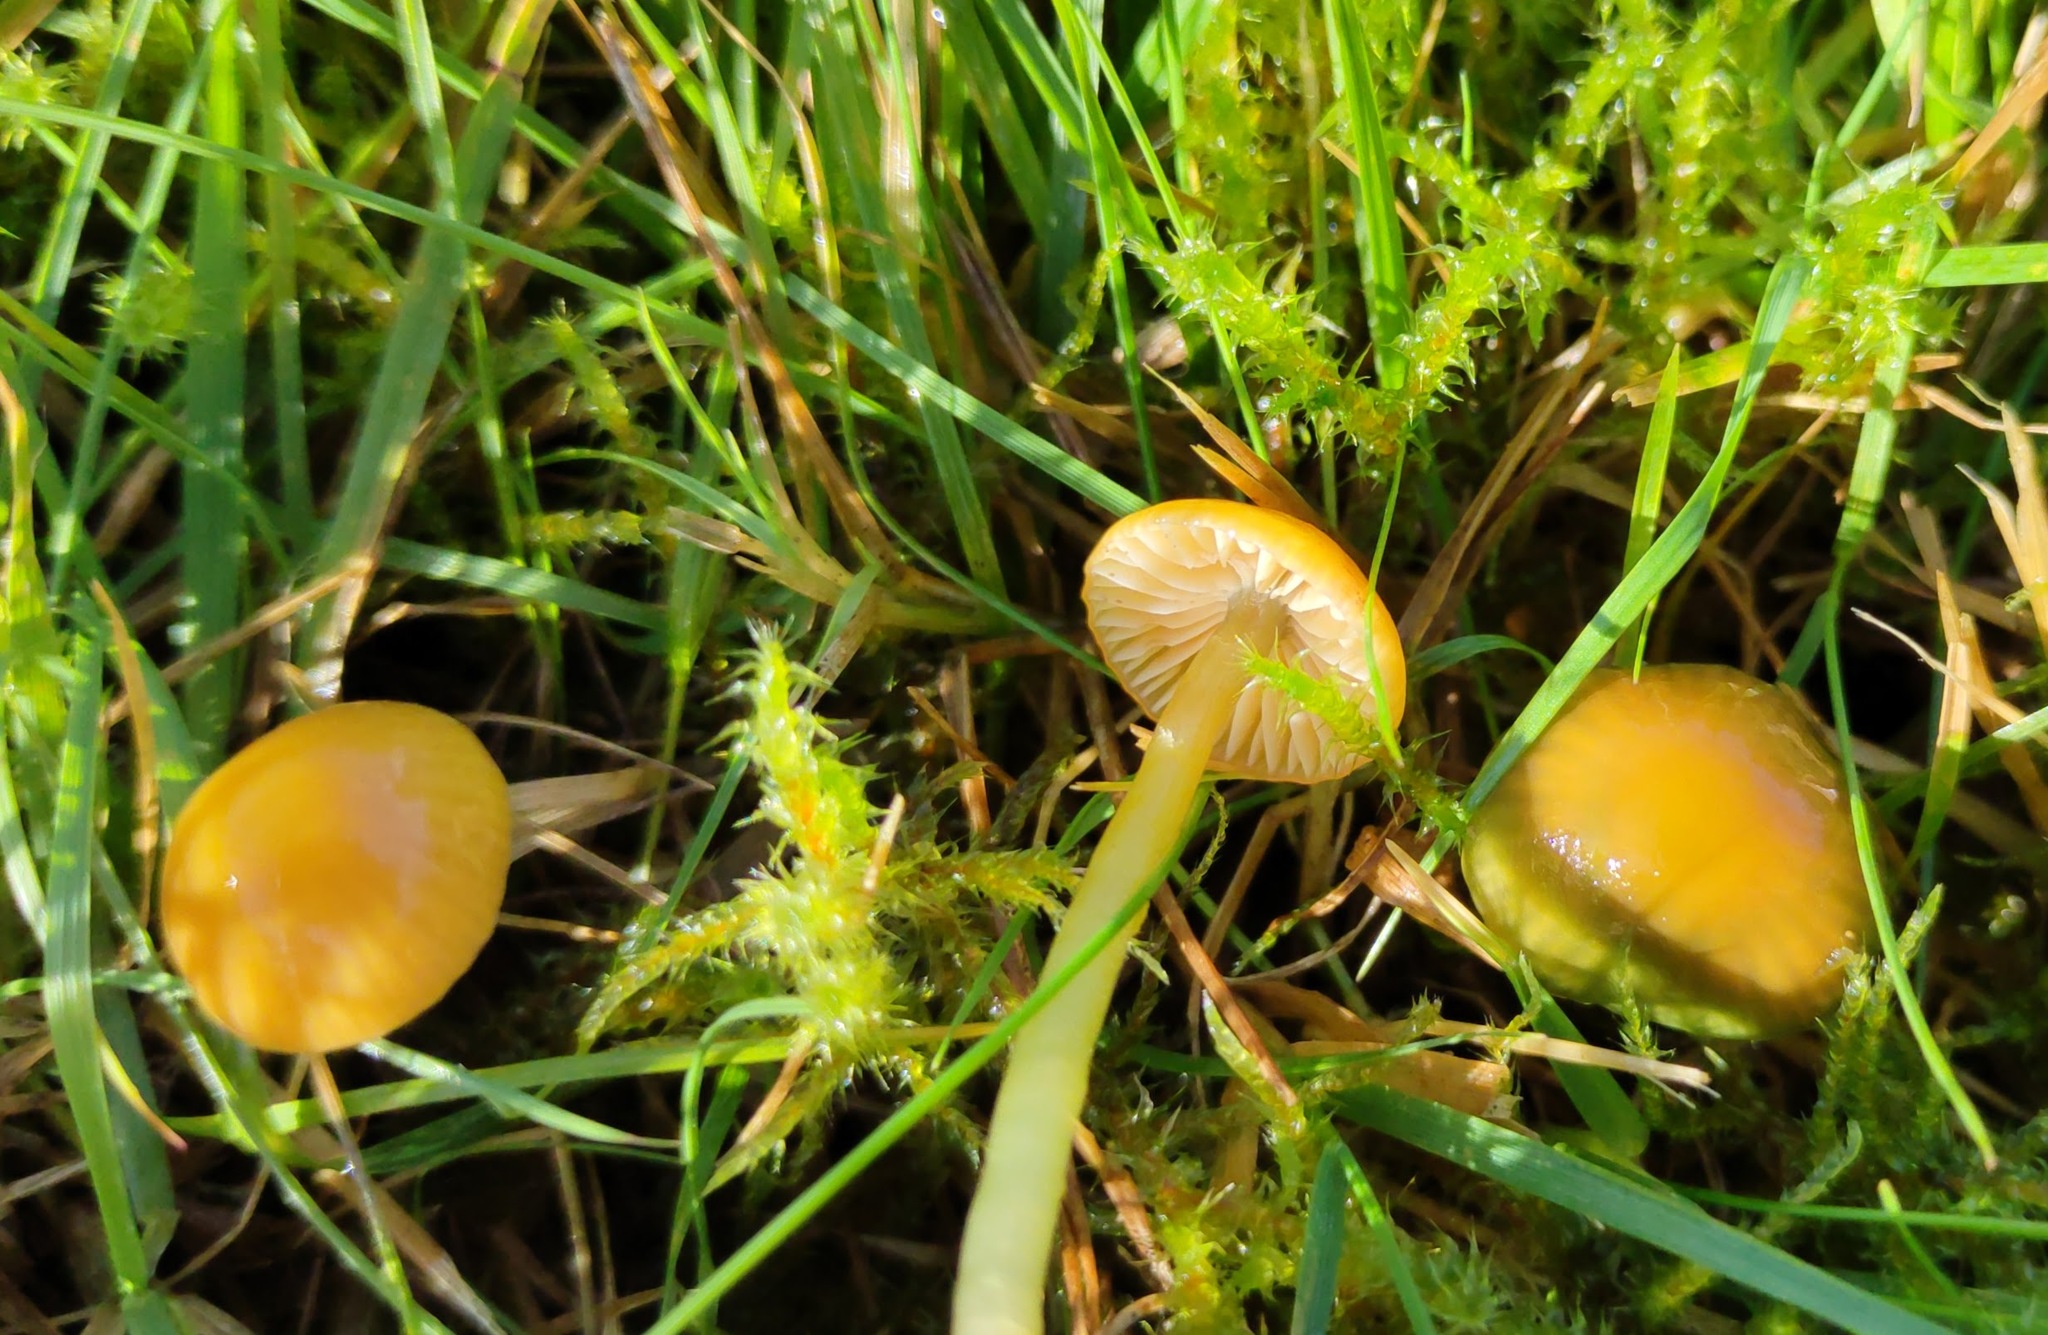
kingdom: Fungi
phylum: Basidiomycota
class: Agaricomycetes
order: Agaricales
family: Hygrophoraceae
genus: Gliophorus
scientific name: Gliophorus psittacinus
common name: Parrot wax-cap
